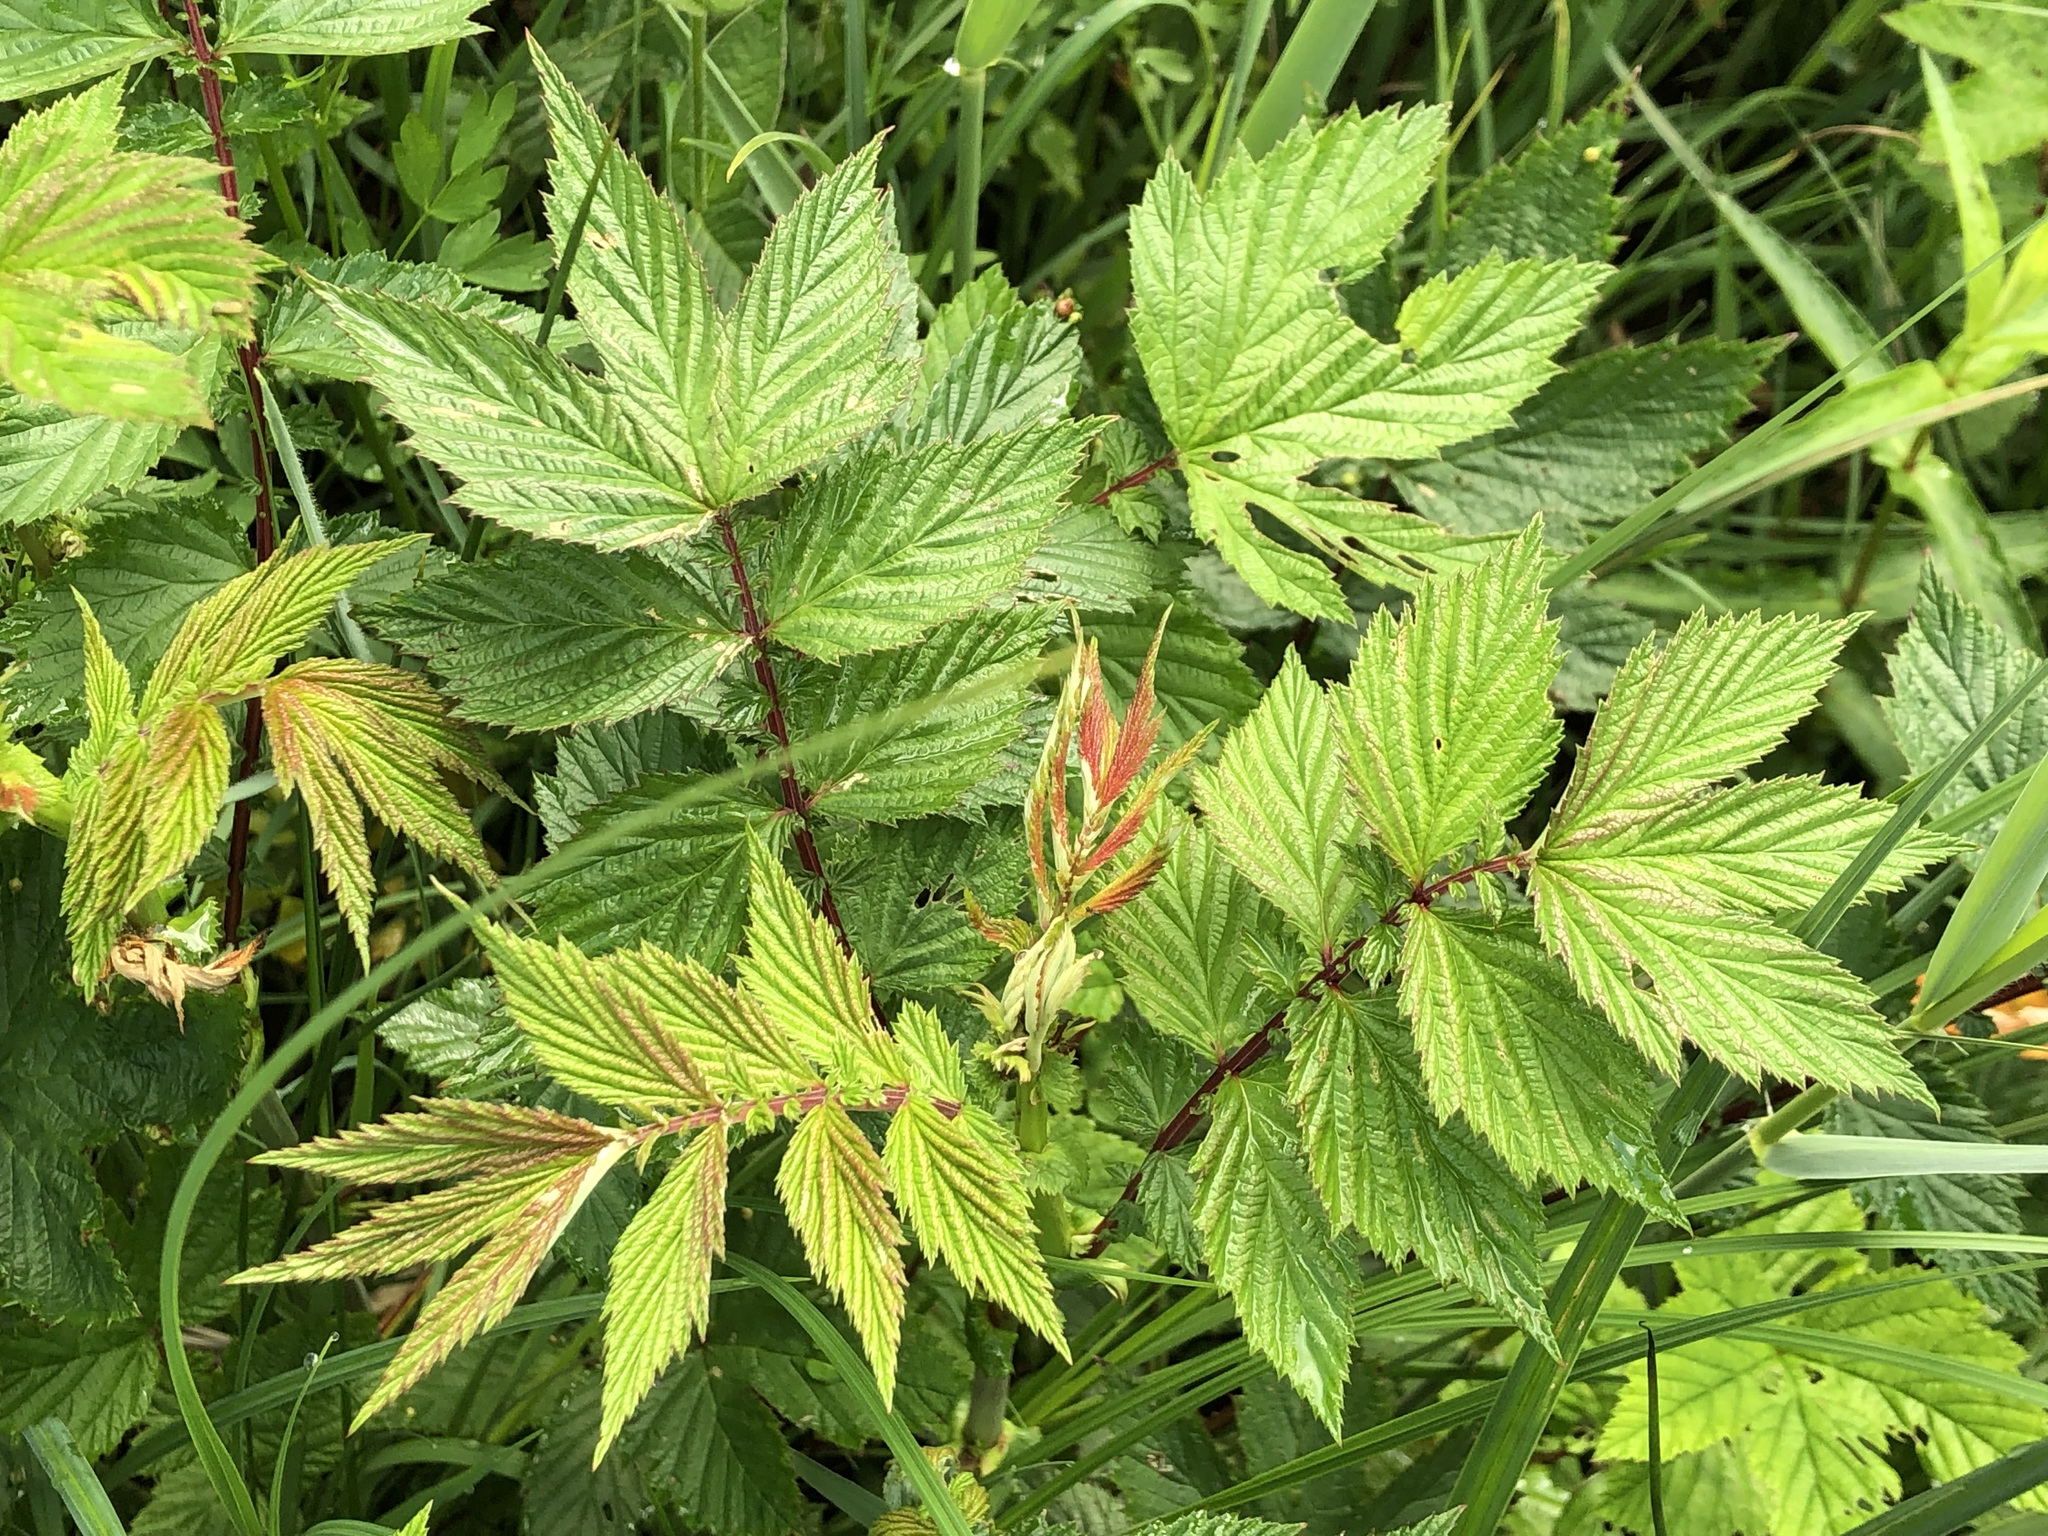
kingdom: Plantae
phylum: Tracheophyta
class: Magnoliopsida
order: Rosales
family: Rosaceae
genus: Filipendula
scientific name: Filipendula ulmaria
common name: Meadowsweet
